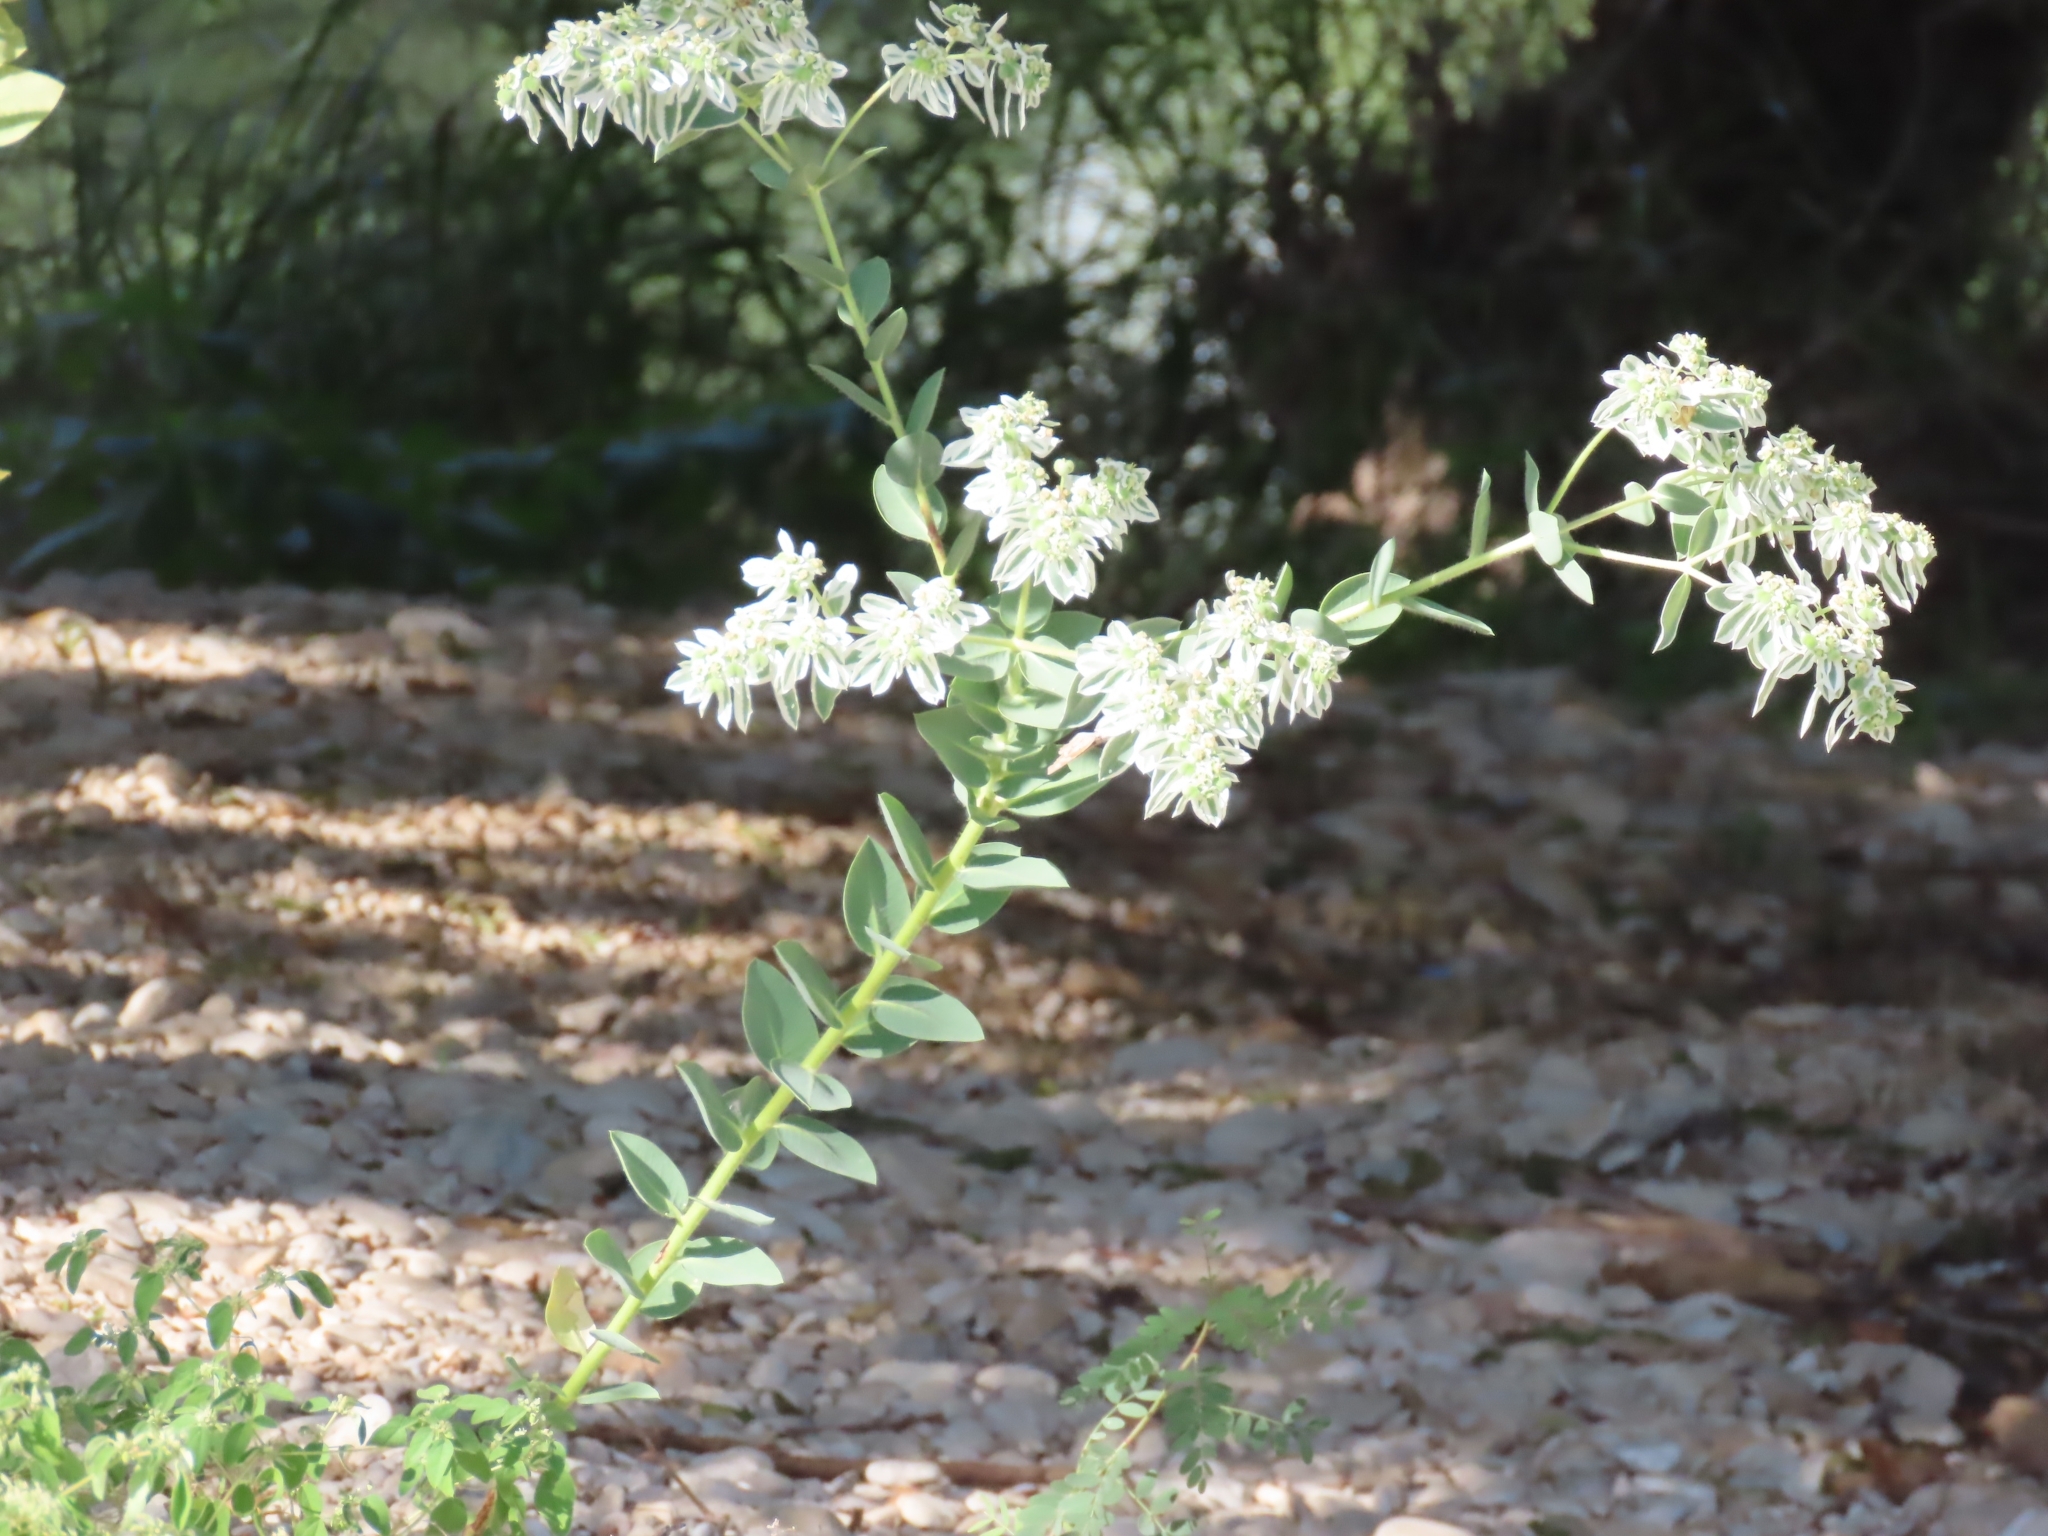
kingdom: Plantae
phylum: Tracheophyta
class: Magnoliopsida
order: Malpighiales
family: Euphorbiaceae
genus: Euphorbia
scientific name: Euphorbia marginata
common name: Ghostweed
